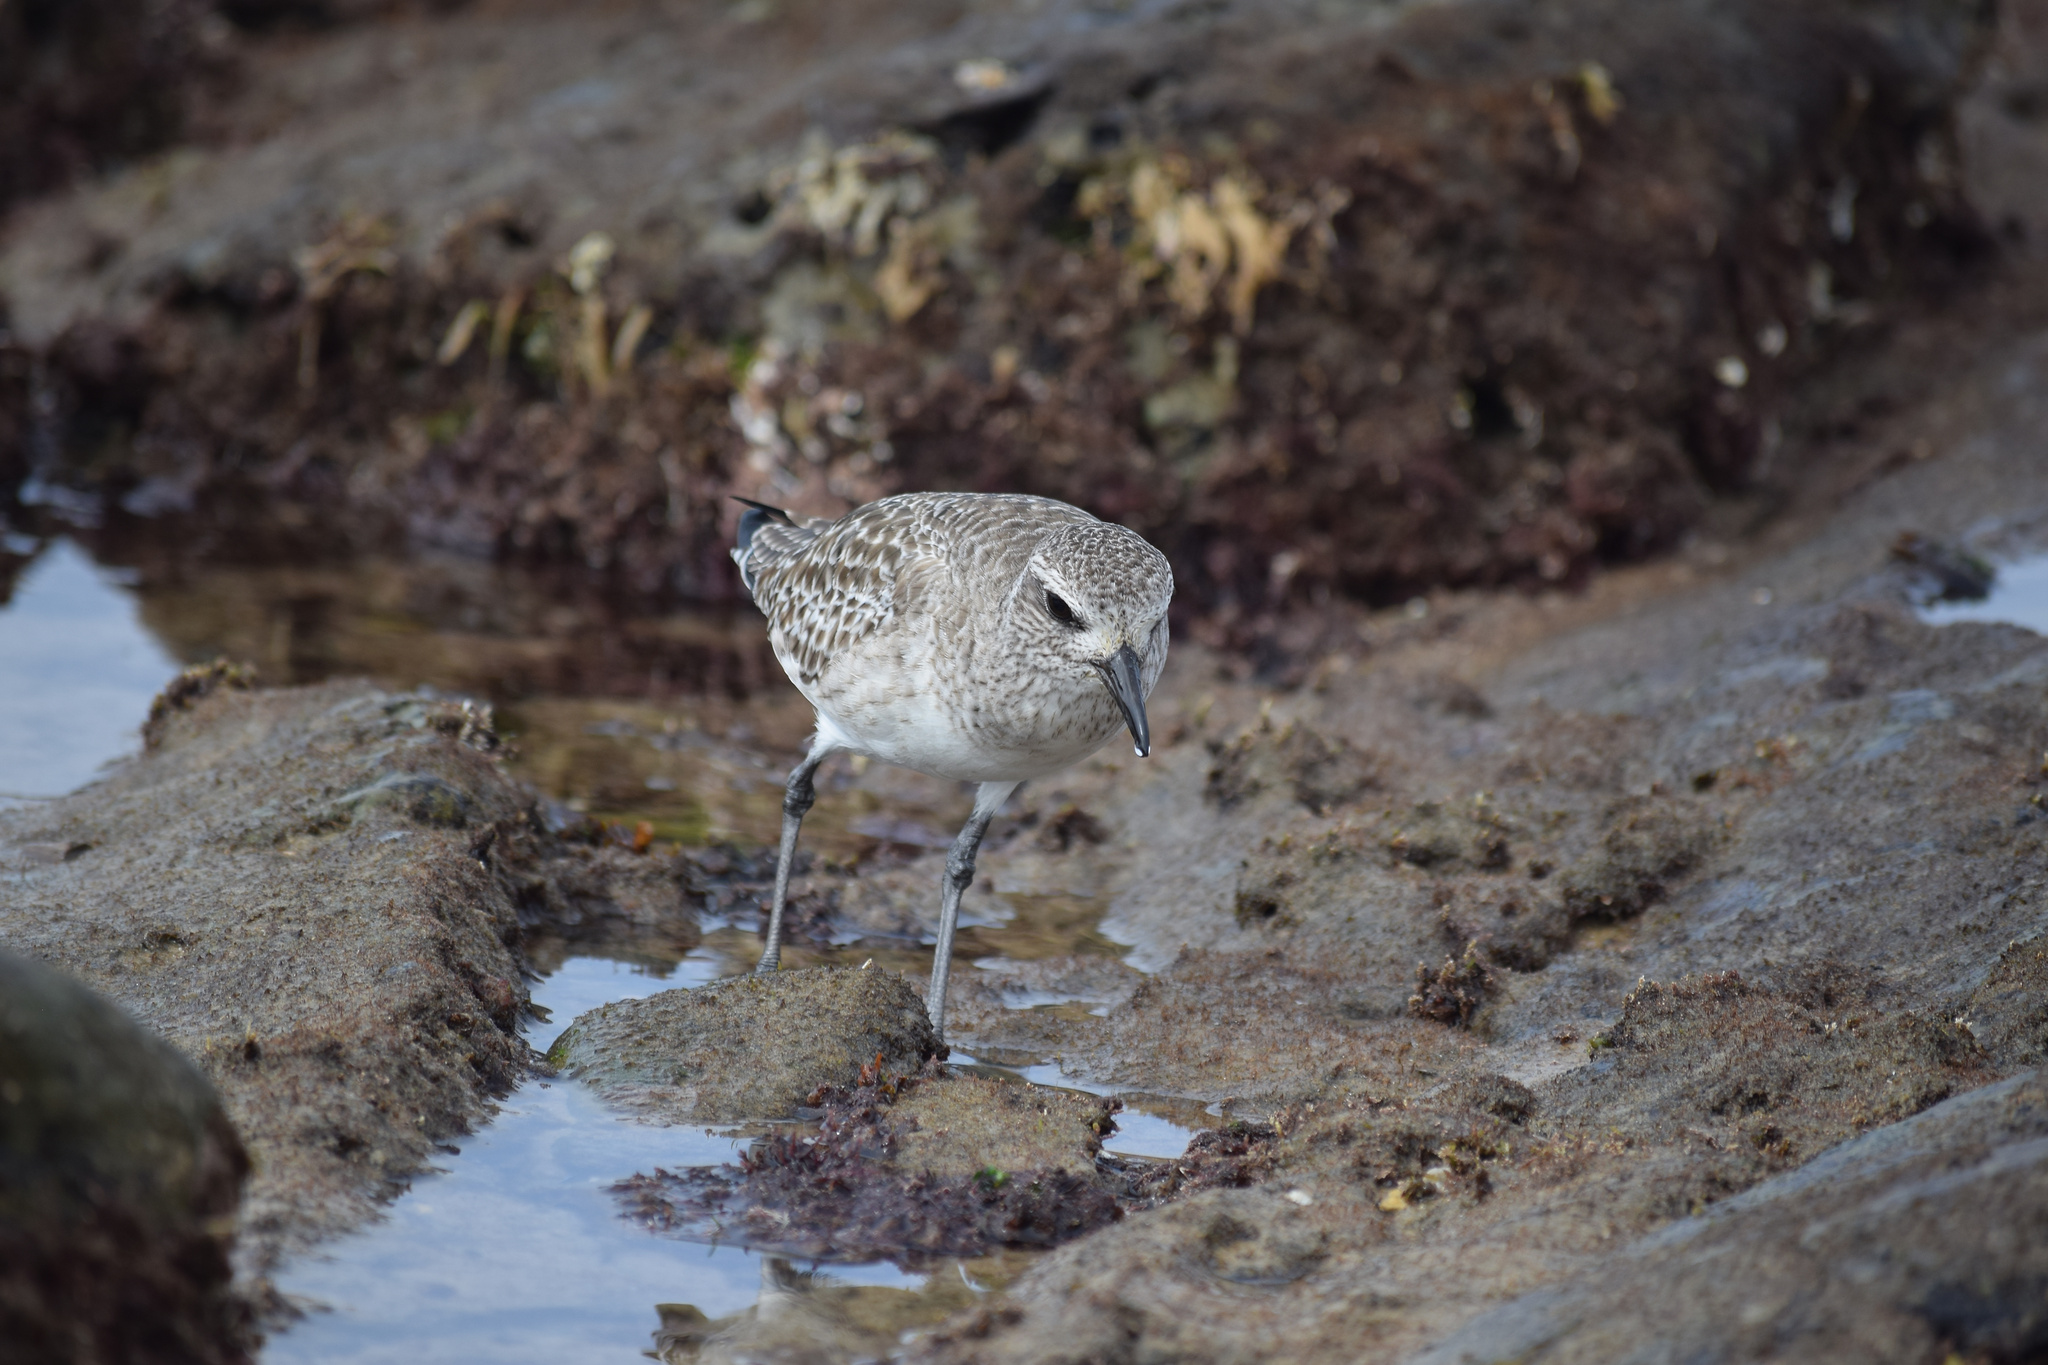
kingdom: Animalia
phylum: Chordata
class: Aves
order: Charadriiformes
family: Charadriidae
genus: Pluvialis
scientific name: Pluvialis squatarola
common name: Grey plover
